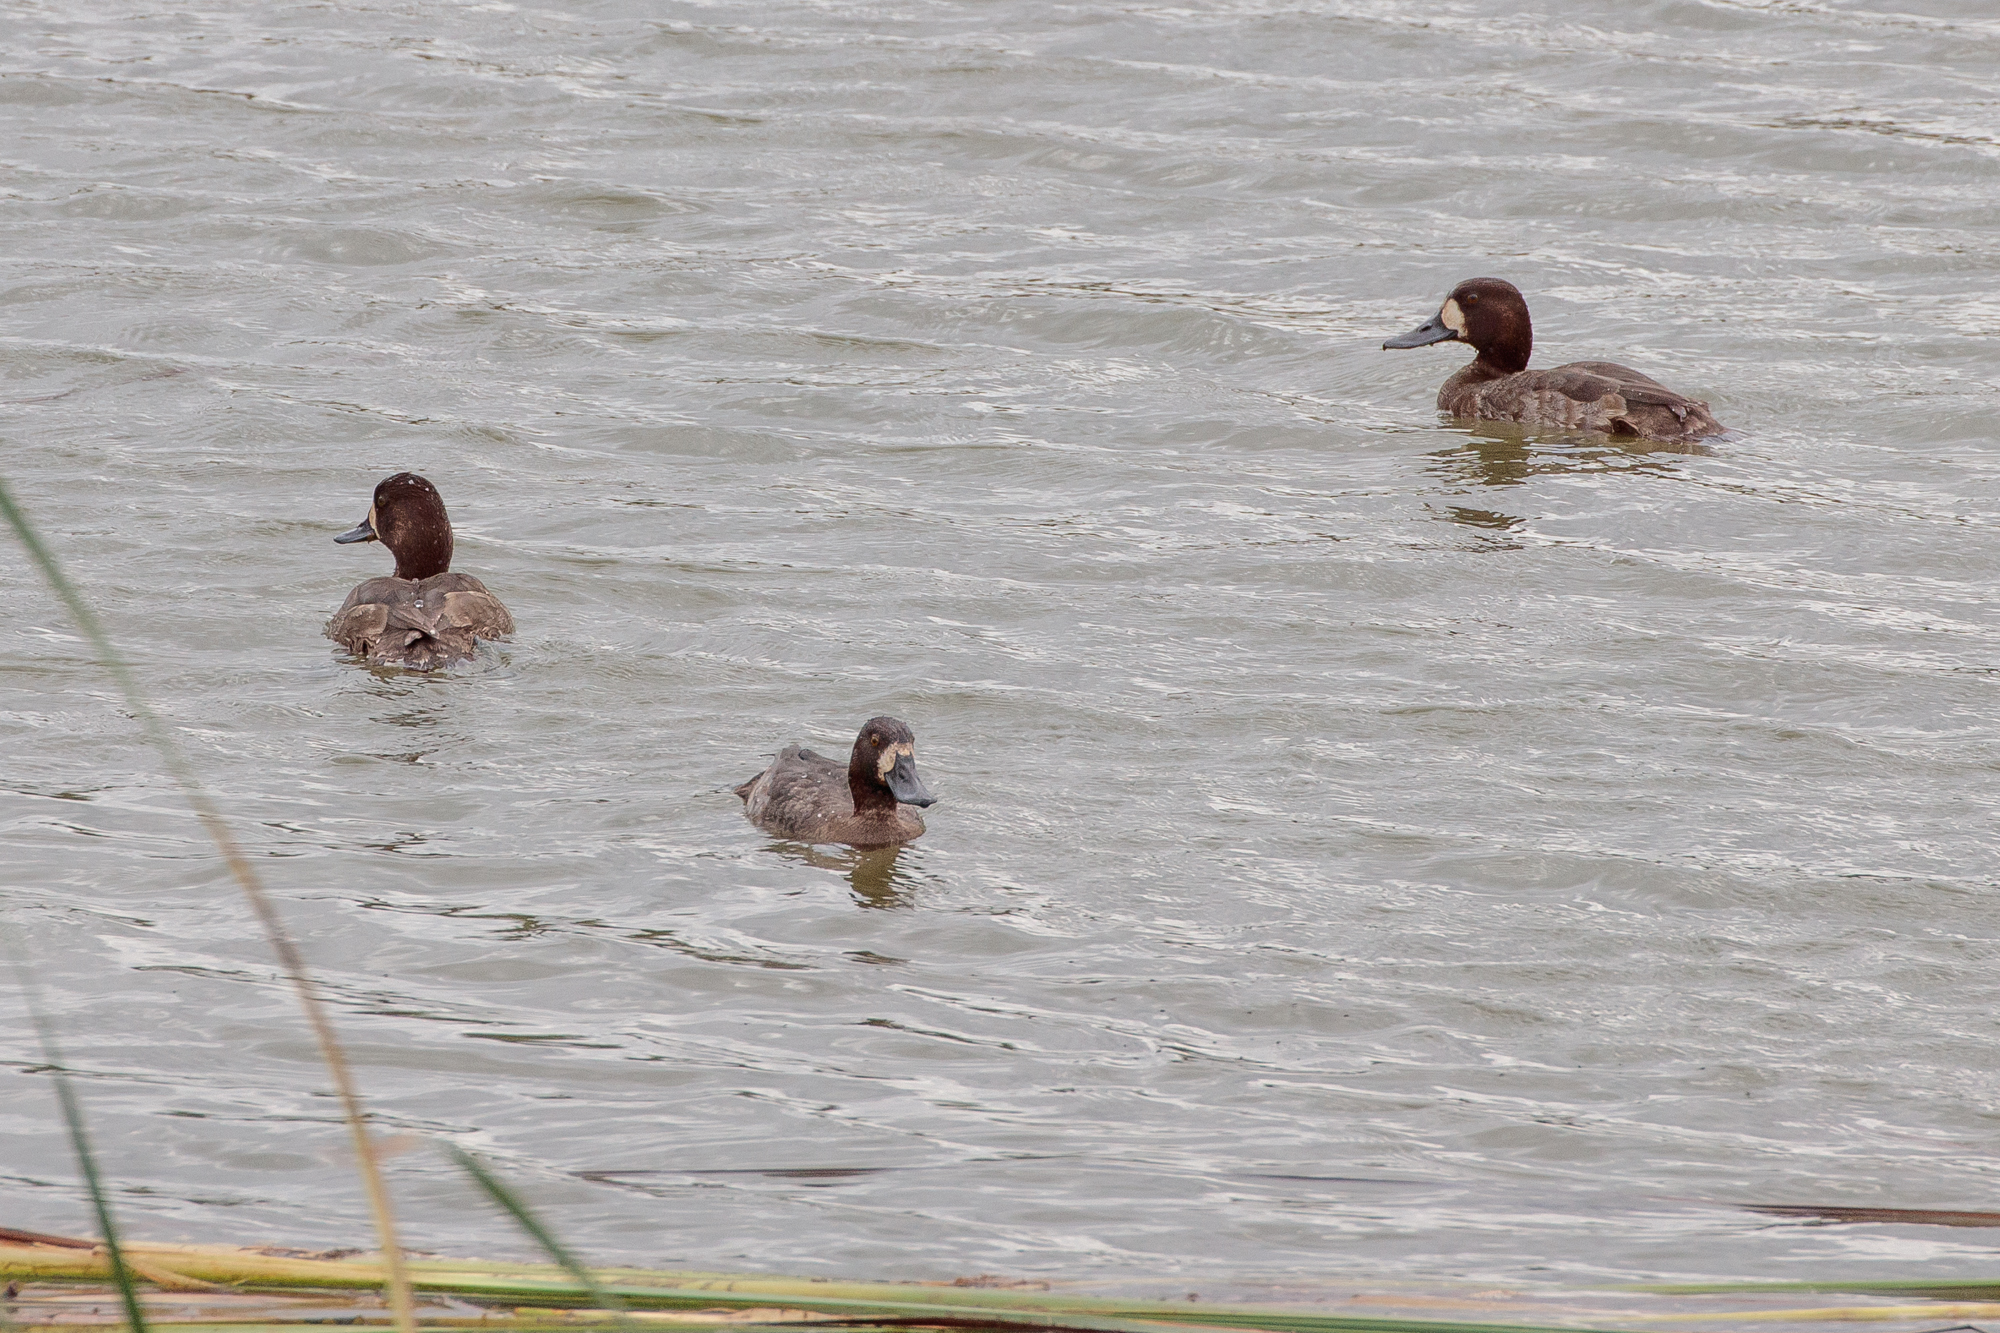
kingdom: Animalia
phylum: Chordata
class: Aves
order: Anseriformes
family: Anatidae
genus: Aythya
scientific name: Aythya marila
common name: Greater scaup
